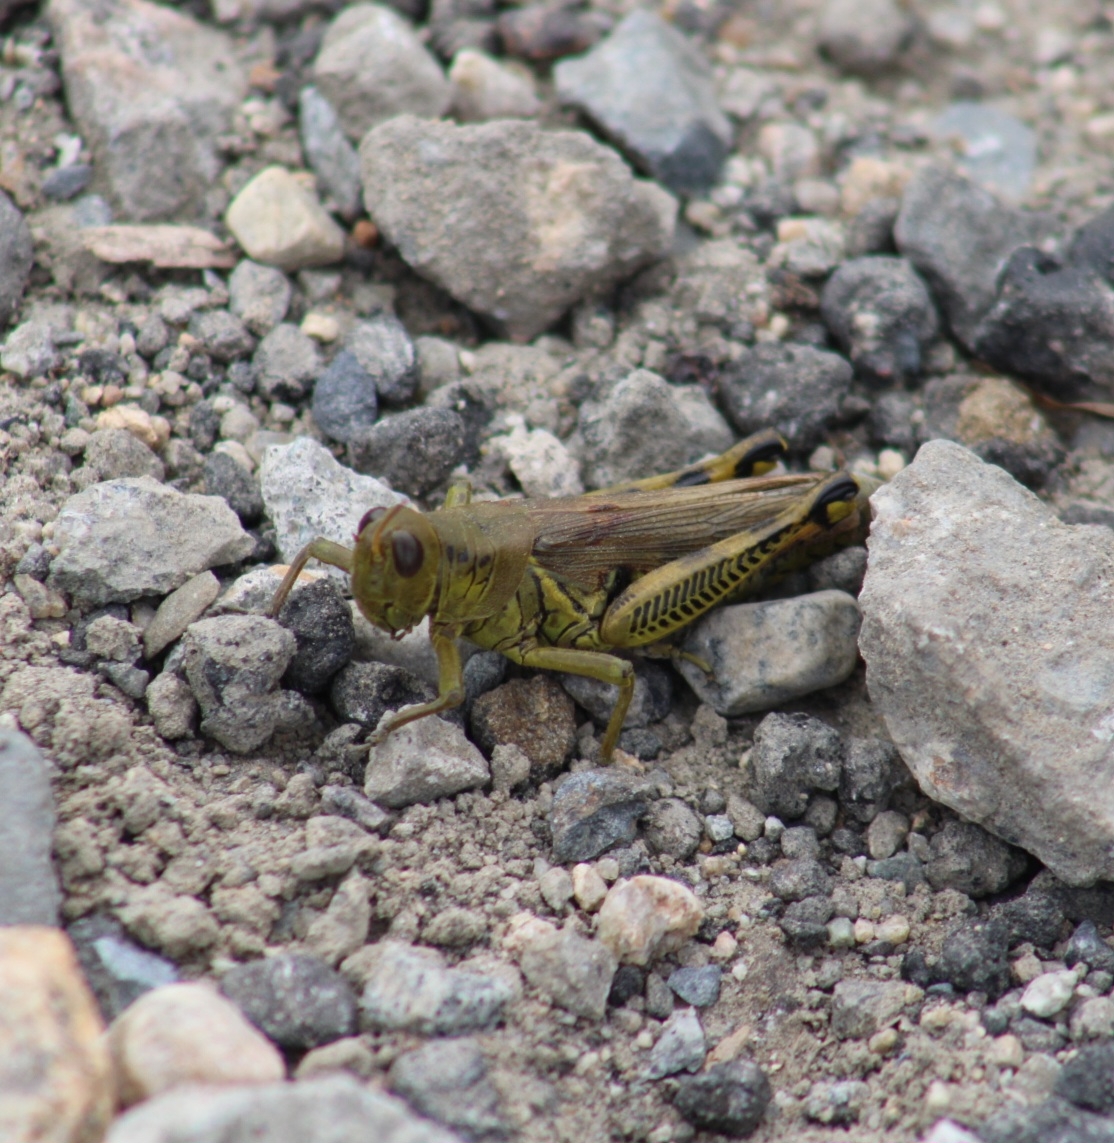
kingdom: Animalia
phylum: Arthropoda
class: Insecta
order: Orthoptera
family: Acrididae
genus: Melanoplus
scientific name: Melanoplus differentialis
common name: Differential grasshopper
